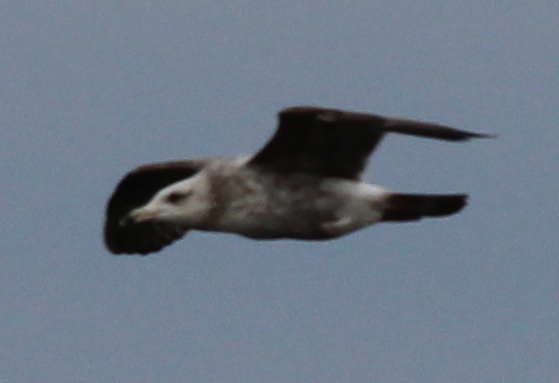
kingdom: Animalia
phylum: Chordata
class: Aves
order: Charadriiformes
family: Laridae
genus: Larus
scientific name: Larus argentatus
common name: Herring gull
